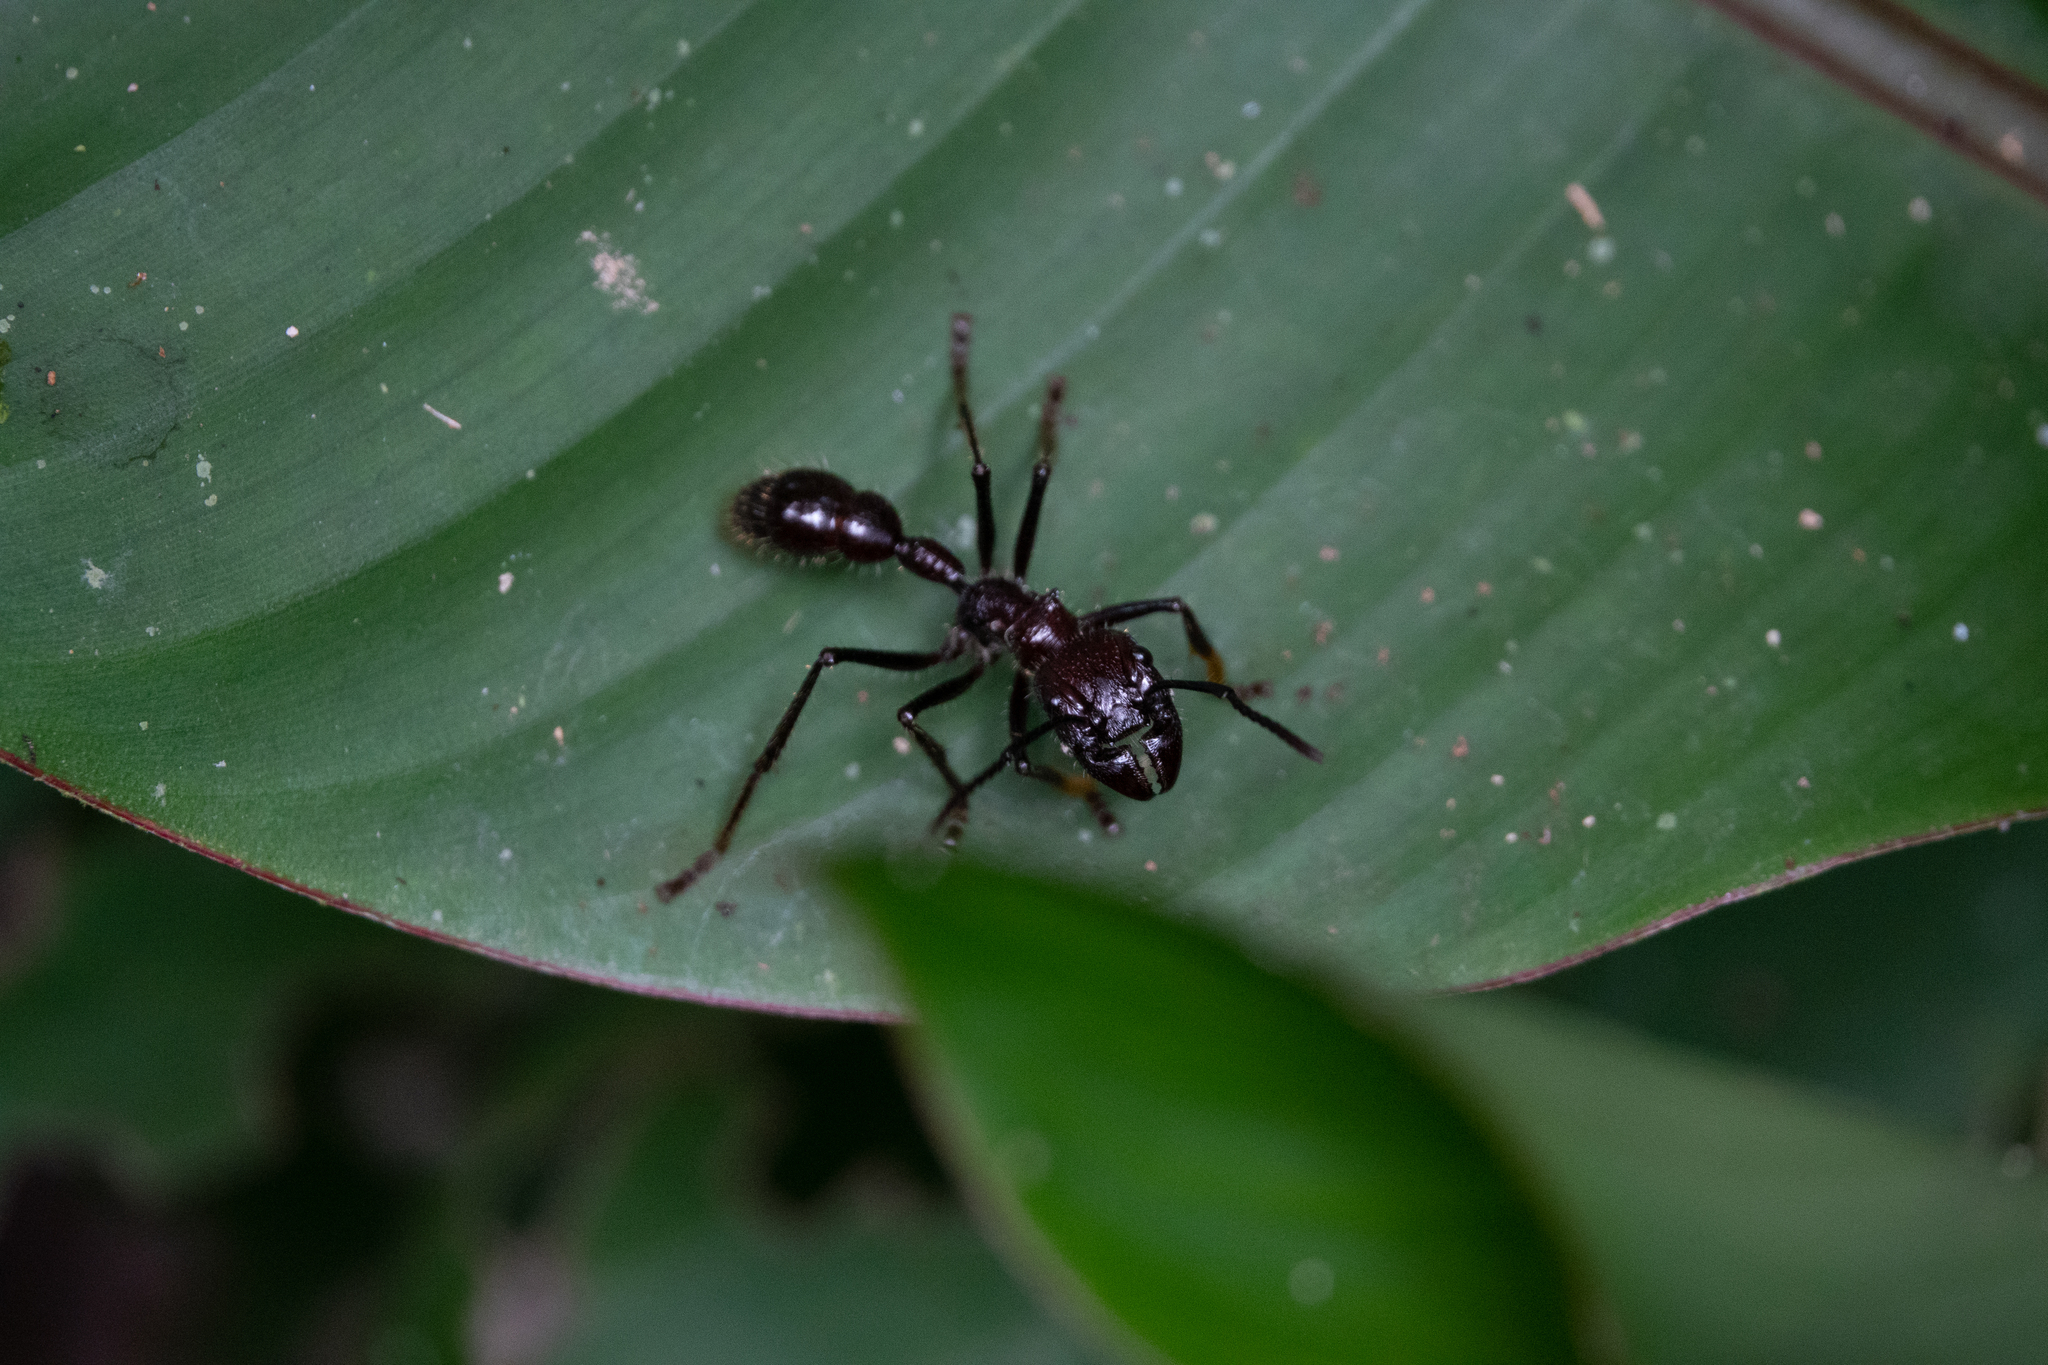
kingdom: Animalia
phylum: Arthropoda
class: Insecta
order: Hymenoptera
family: Formicidae
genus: Paraponera
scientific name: Paraponera clavata
